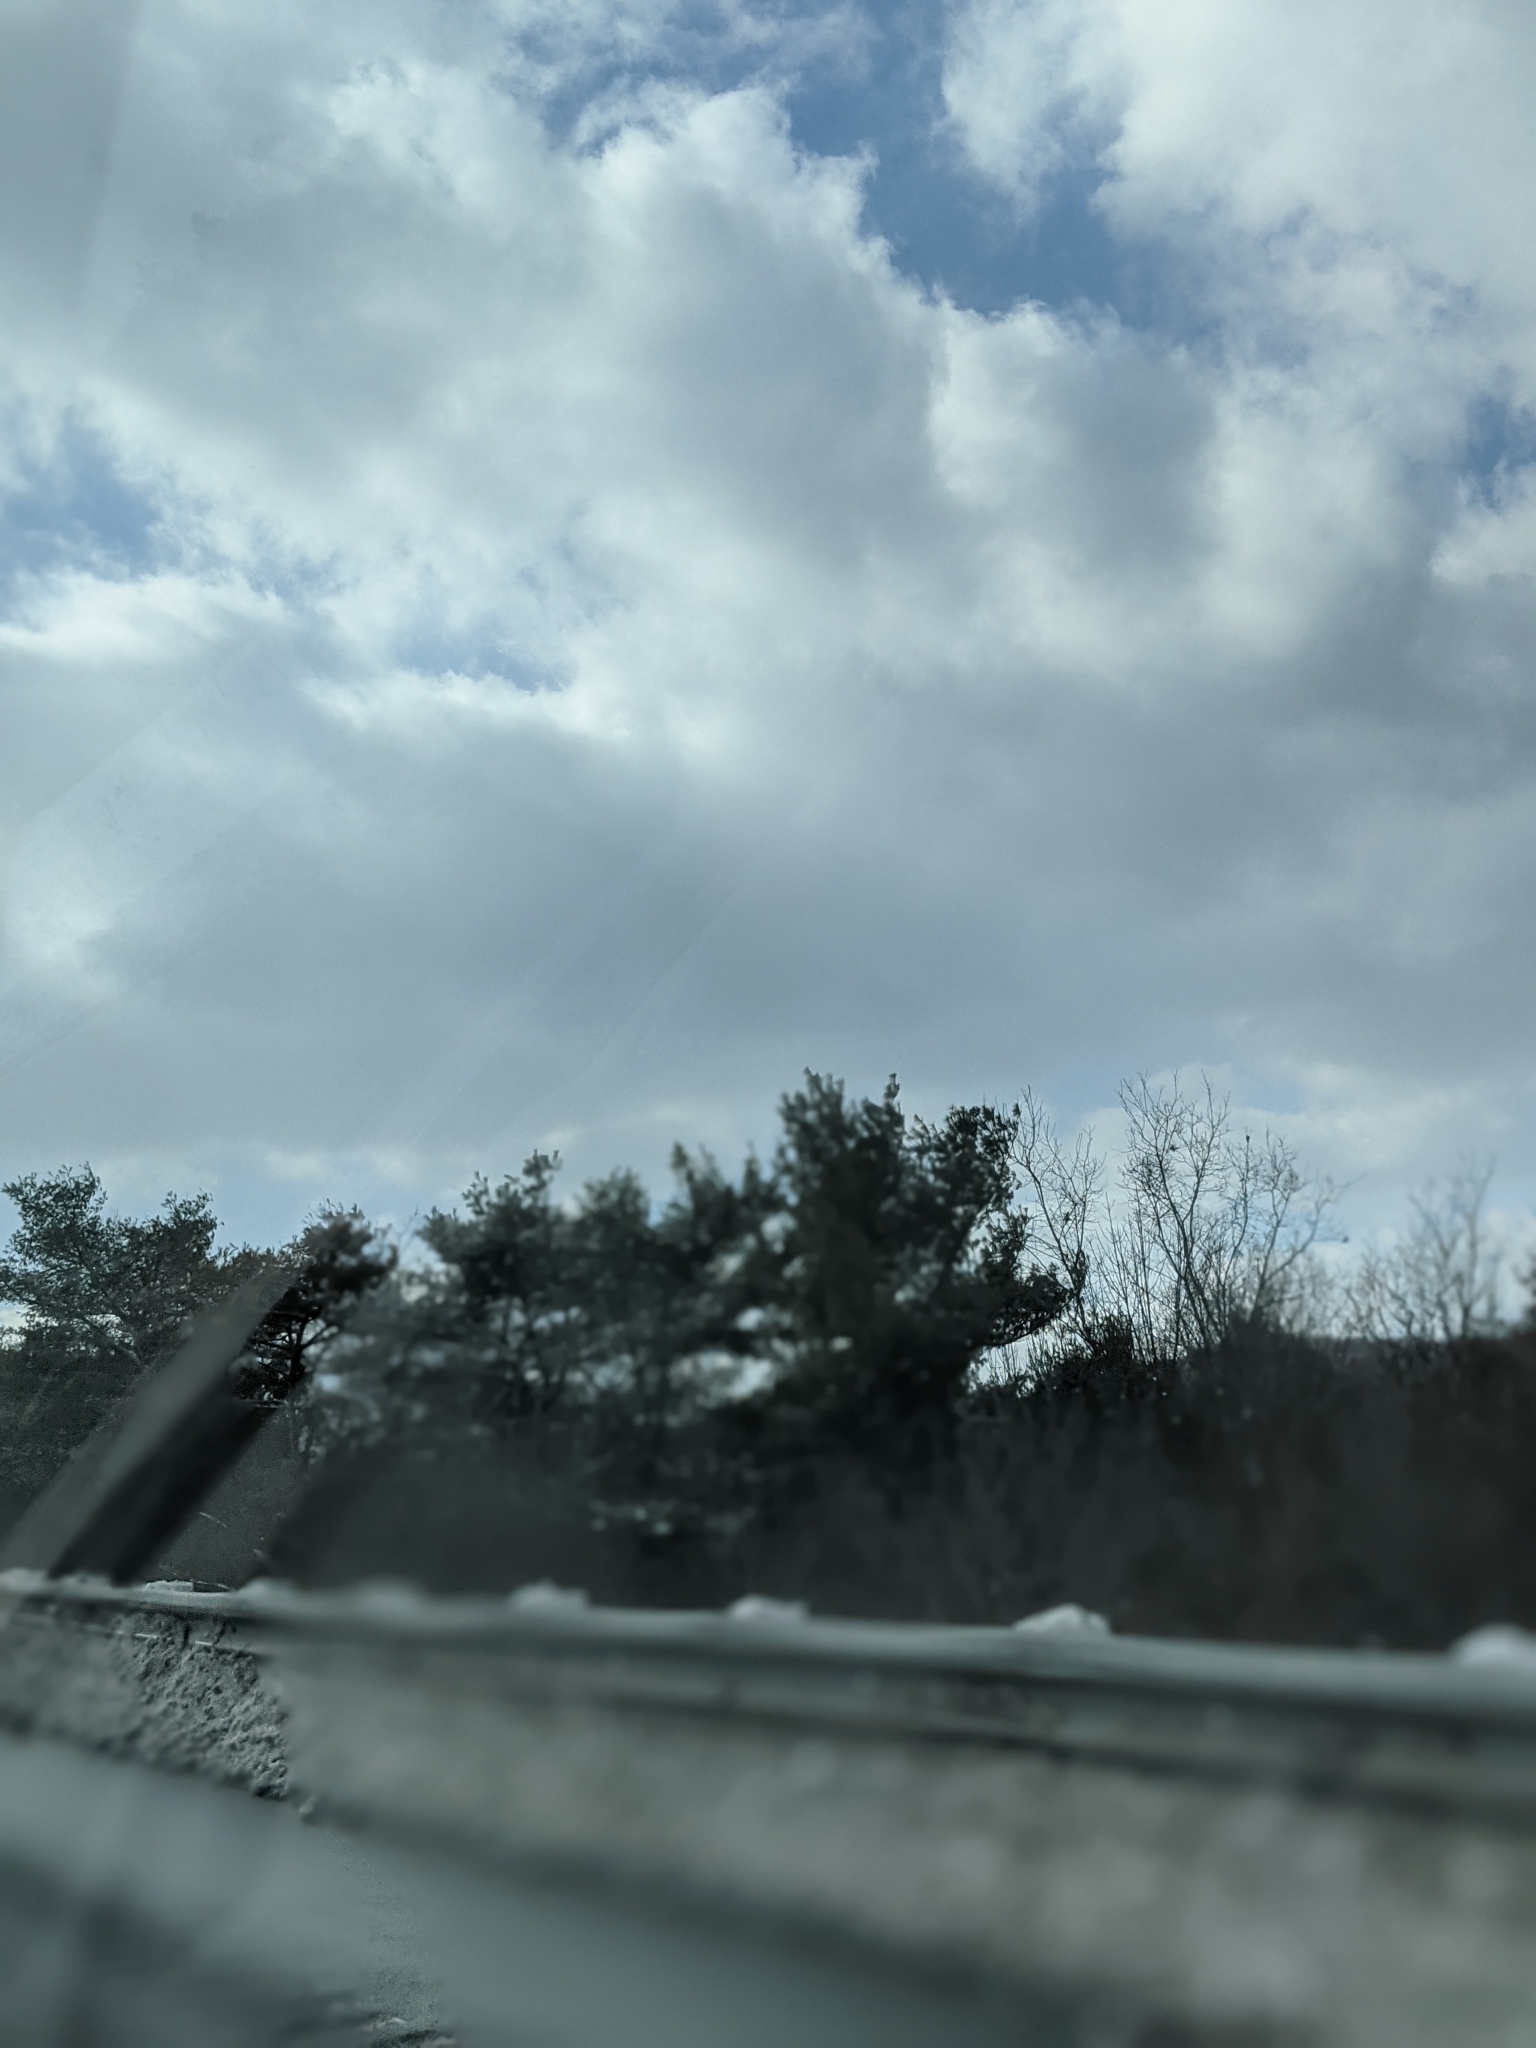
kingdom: Plantae
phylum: Tracheophyta
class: Pinopsida
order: Pinales
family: Pinaceae
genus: Pinus
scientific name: Pinus strobus
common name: Weymouth pine
